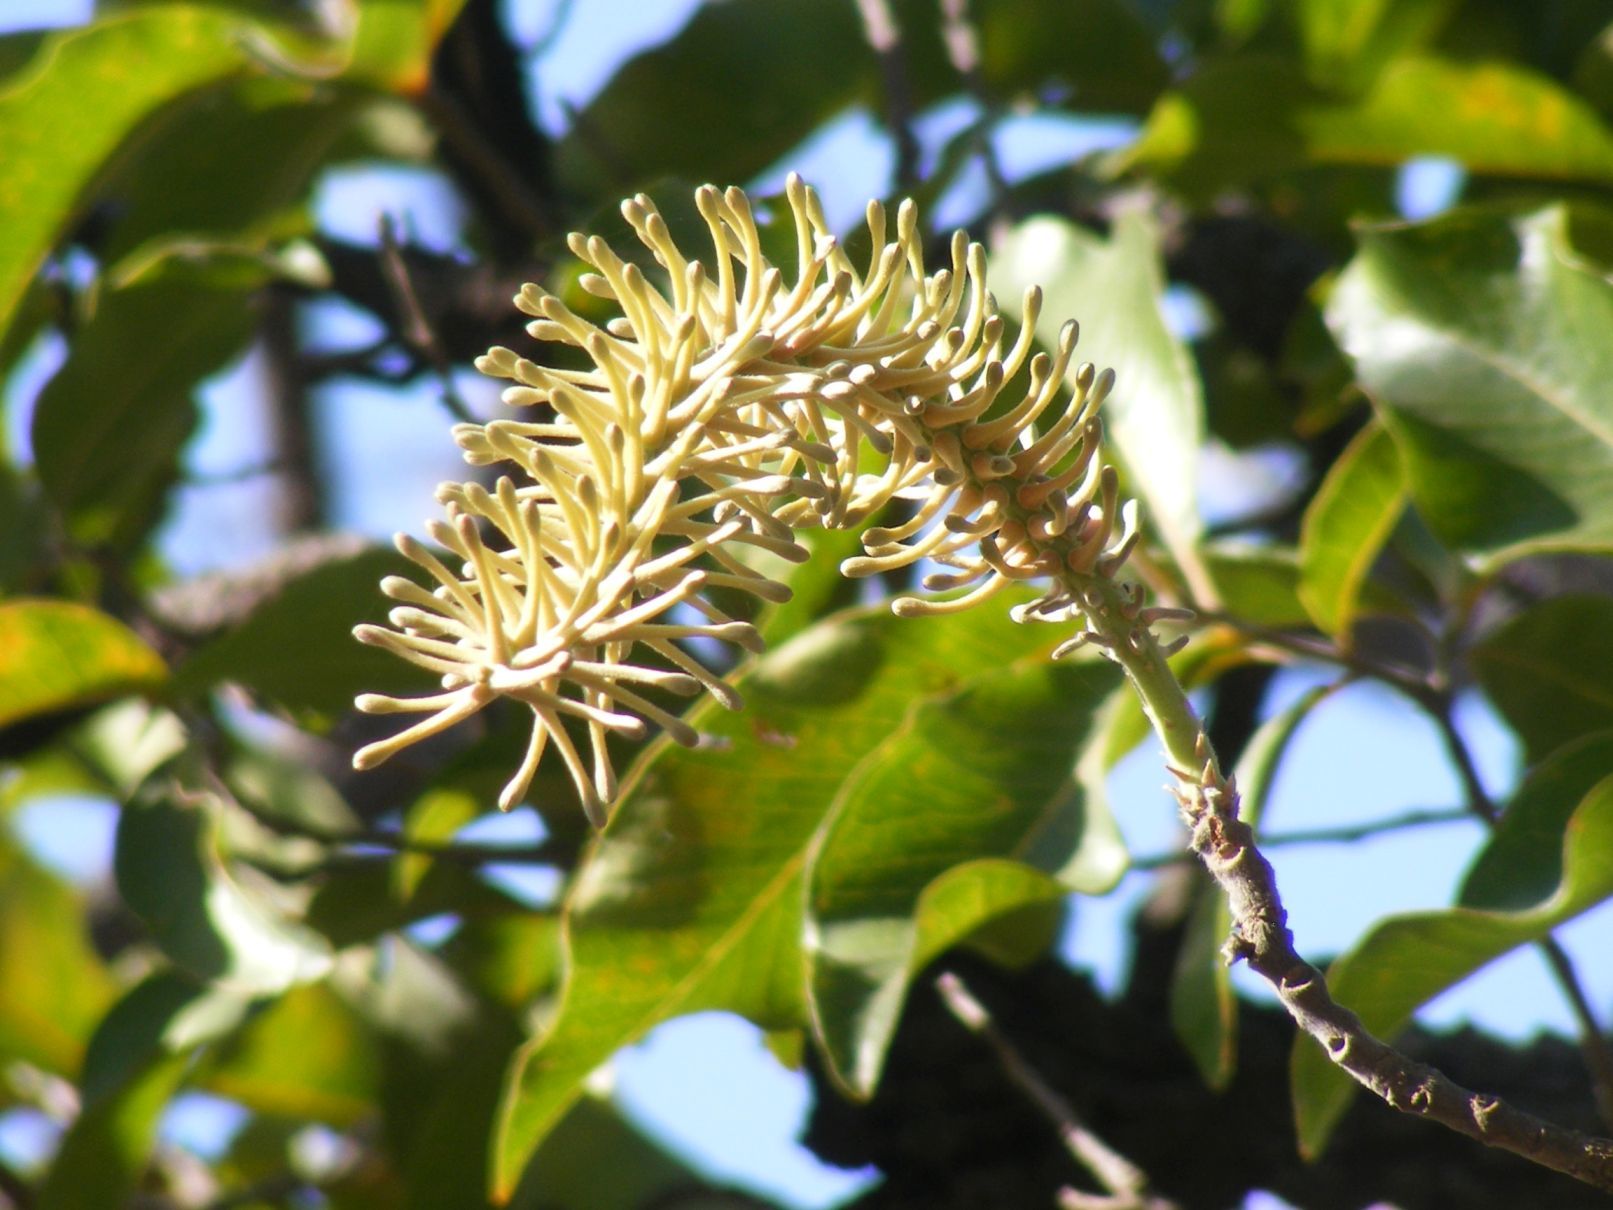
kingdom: Plantae
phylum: Tracheophyta
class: Magnoliopsida
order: Proteales
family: Proteaceae
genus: Faurea
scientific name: Faurea rochetiana
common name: Broad-leaved beech
